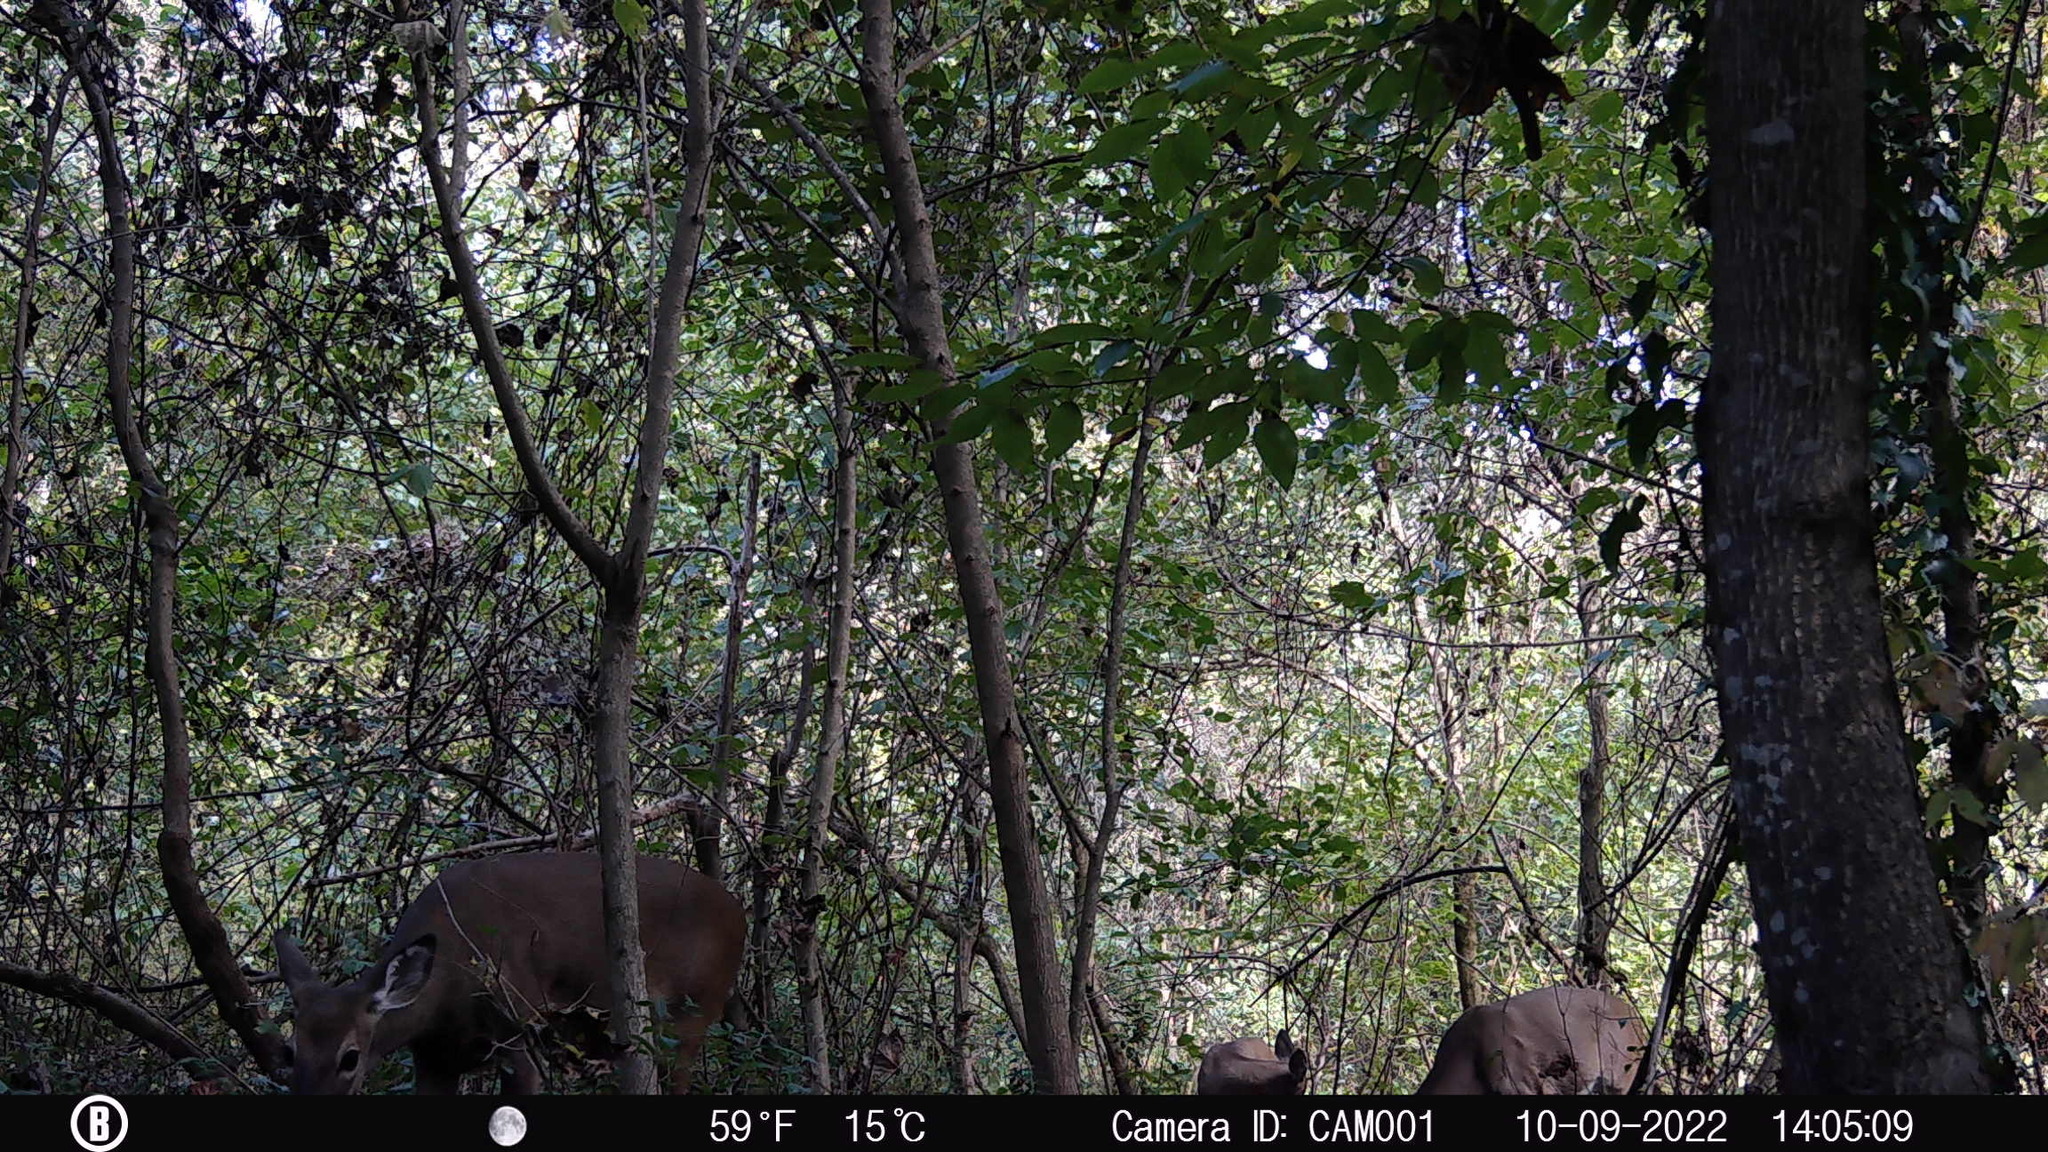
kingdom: Animalia
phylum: Chordata
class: Mammalia
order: Artiodactyla
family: Cervidae
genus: Odocoileus
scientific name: Odocoileus virginianus
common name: White-tailed deer
